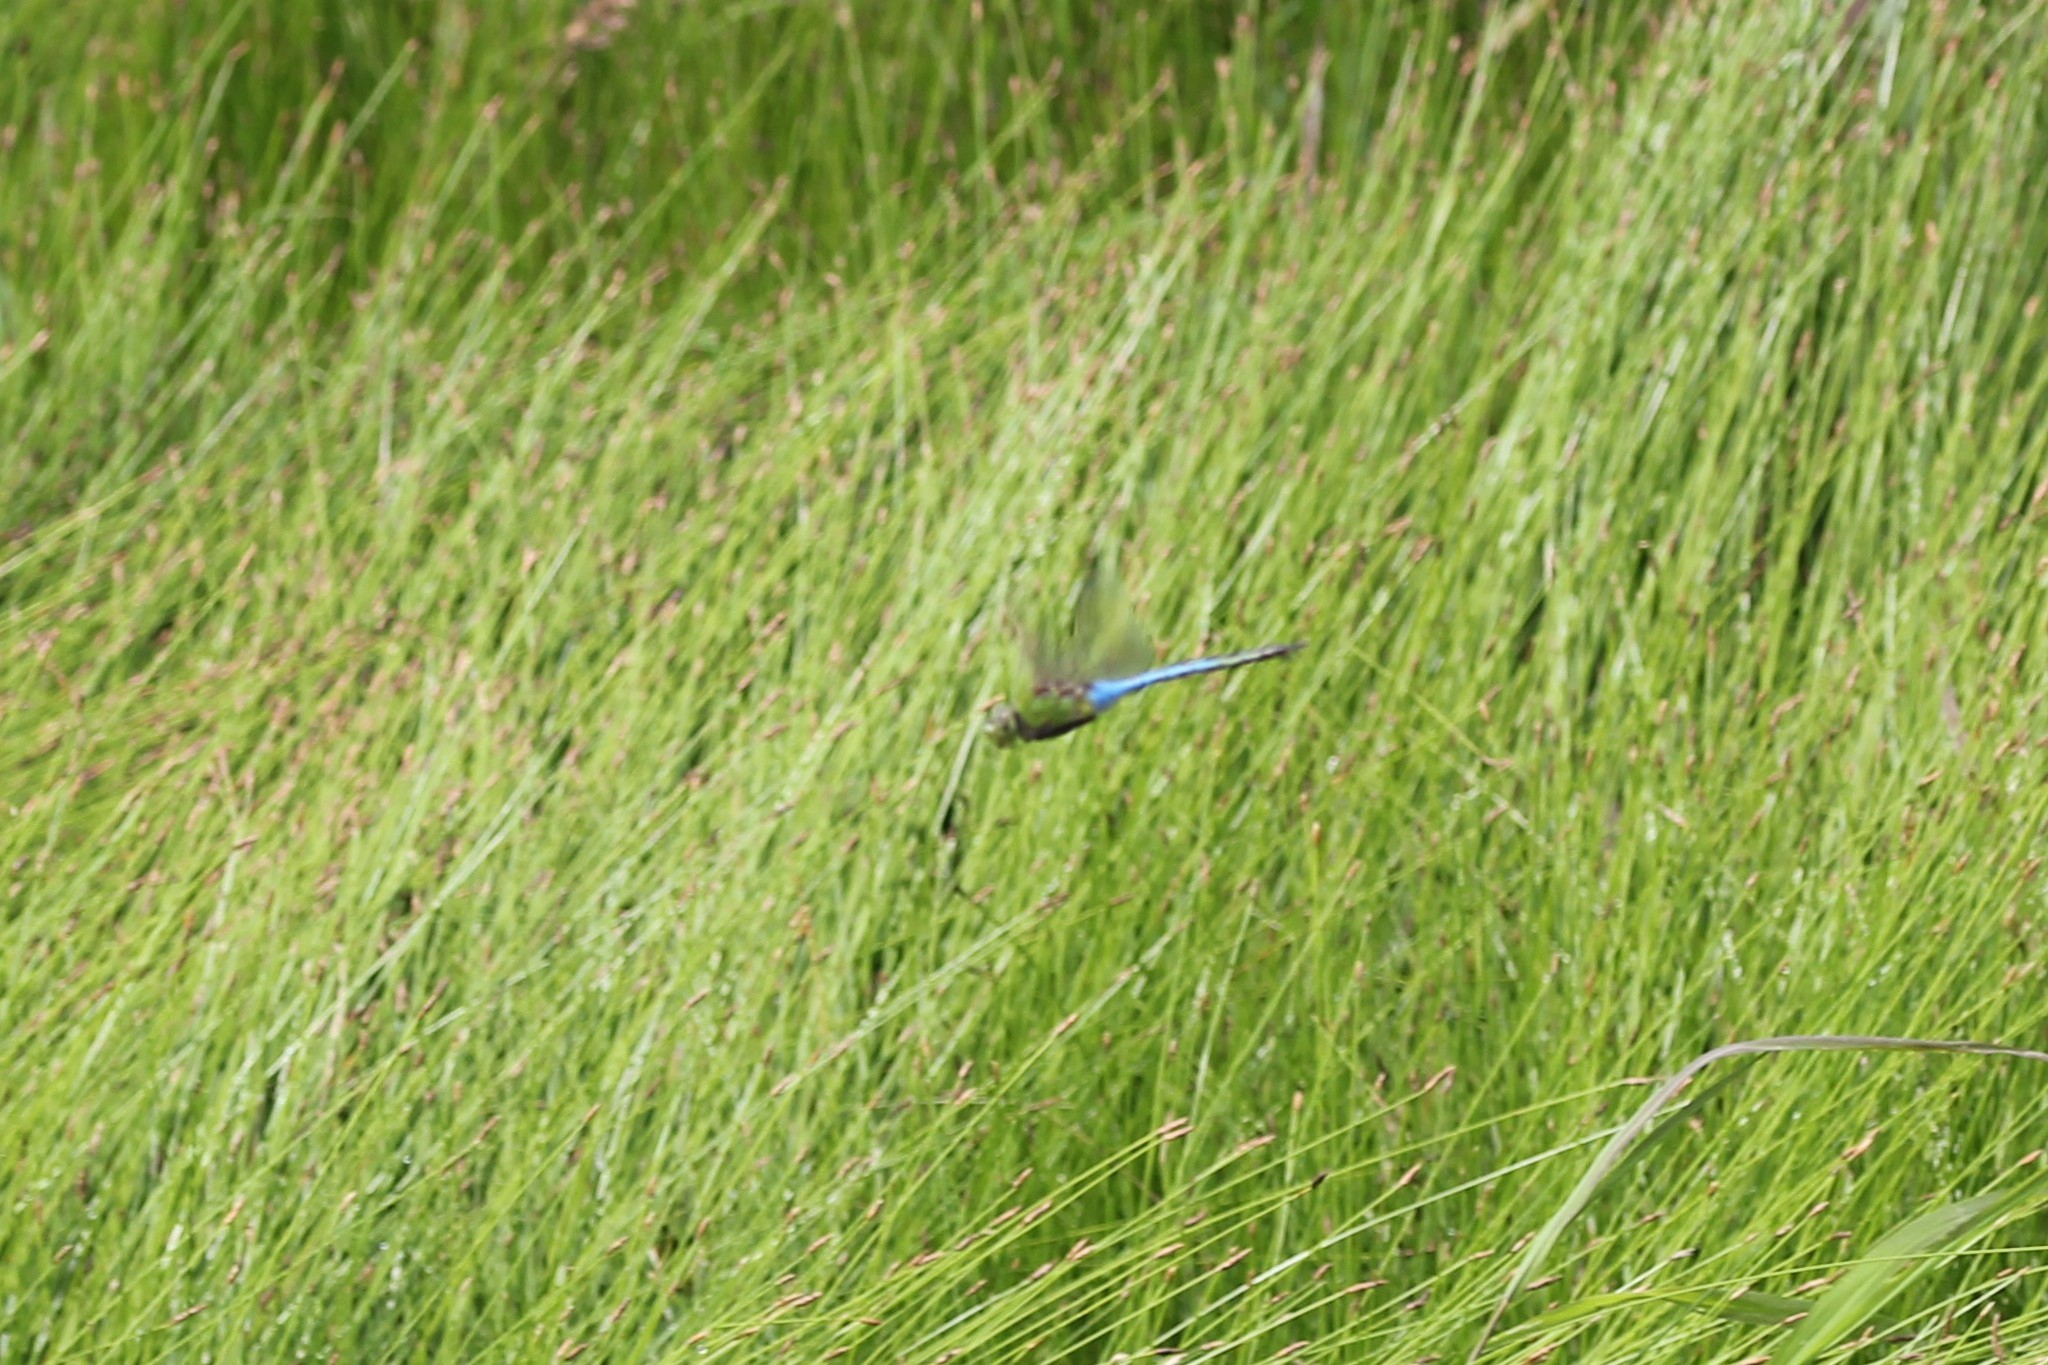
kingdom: Animalia
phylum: Arthropoda
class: Insecta
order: Odonata
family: Aeshnidae
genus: Anax
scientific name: Anax junius
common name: Common green darner
